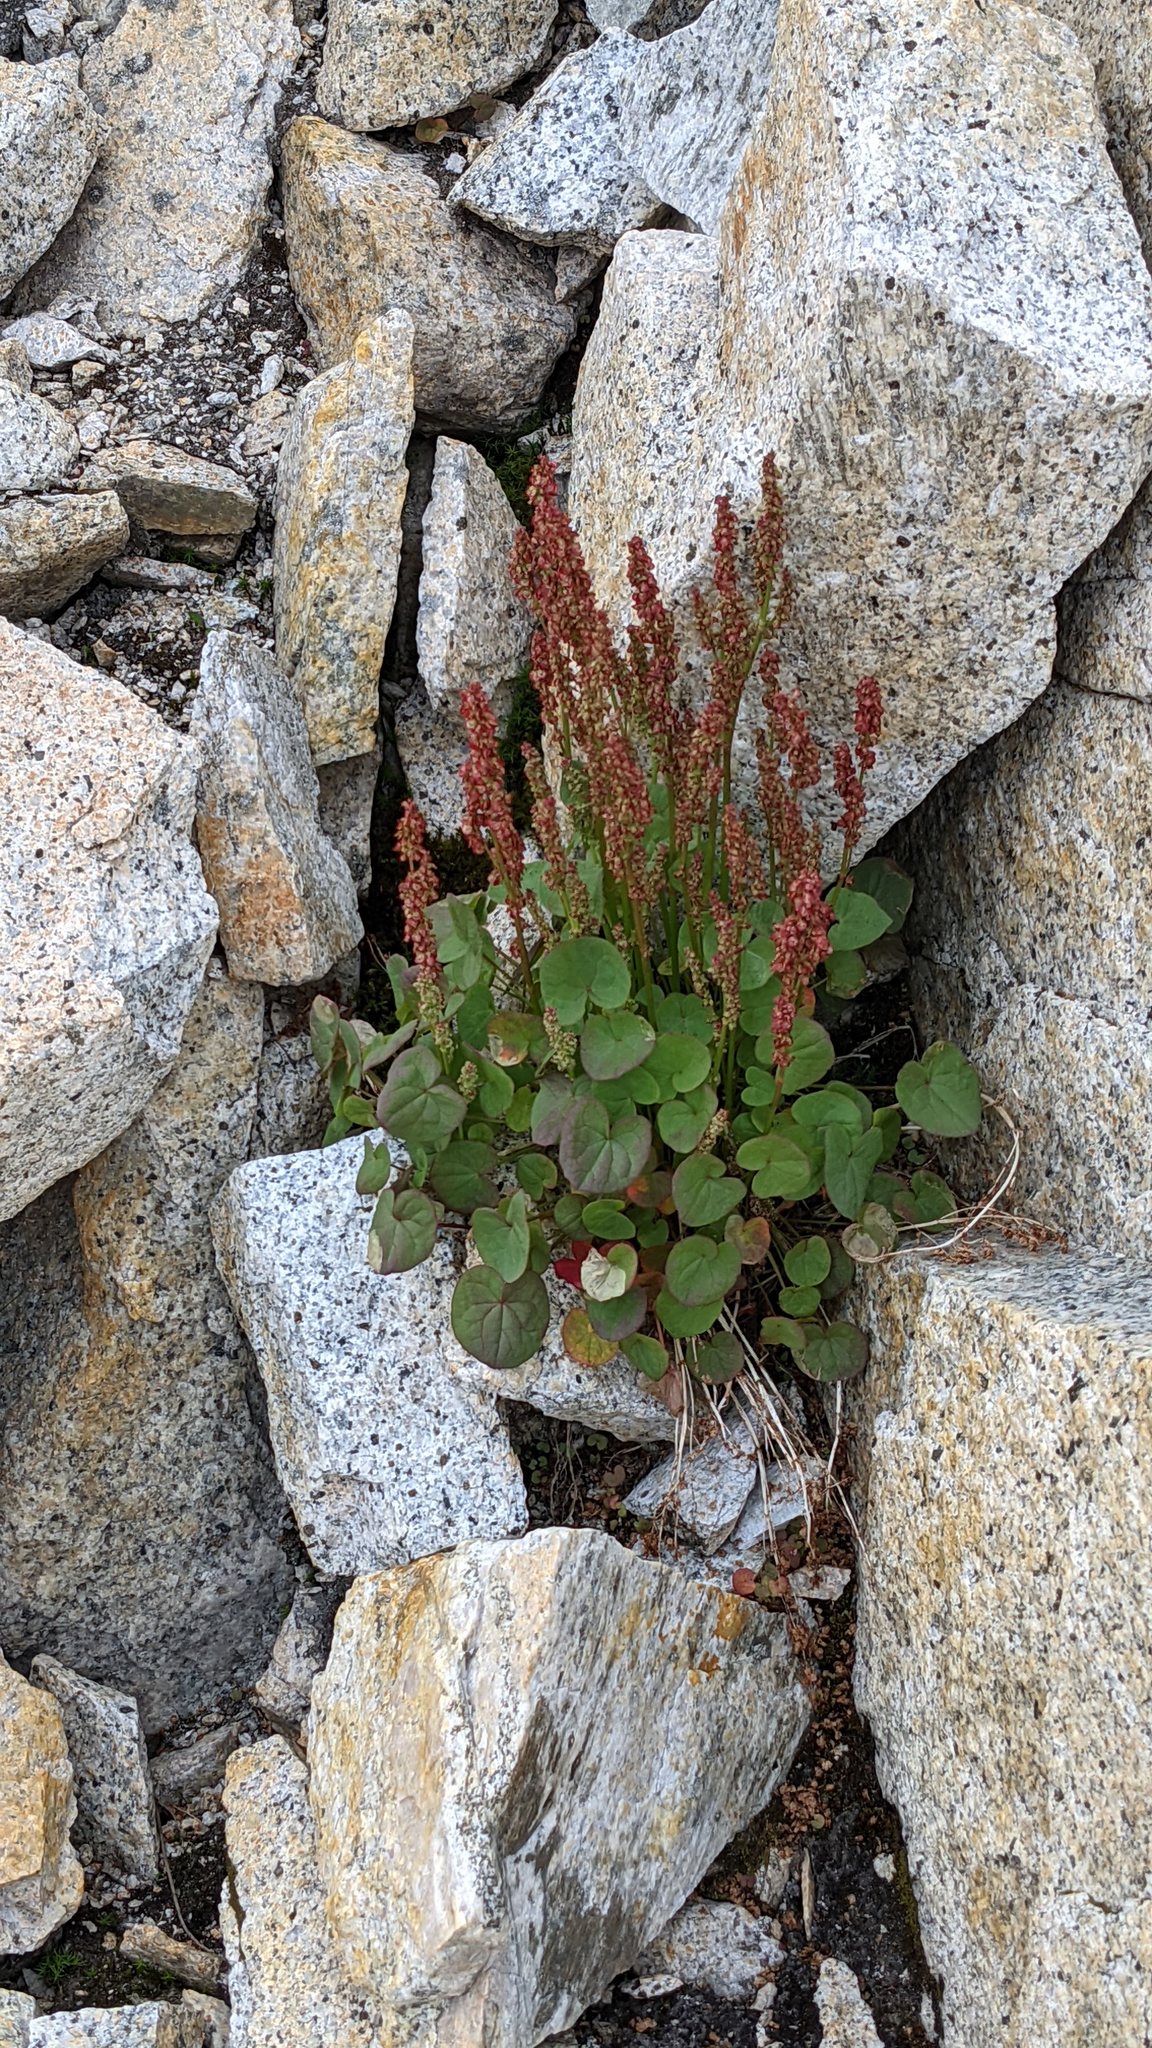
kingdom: Plantae
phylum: Tracheophyta
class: Magnoliopsida
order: Caryophyllales
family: Polygonaceae
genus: Oxyria
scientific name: Oxyria digyna
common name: Alpine mountain-sorrel
